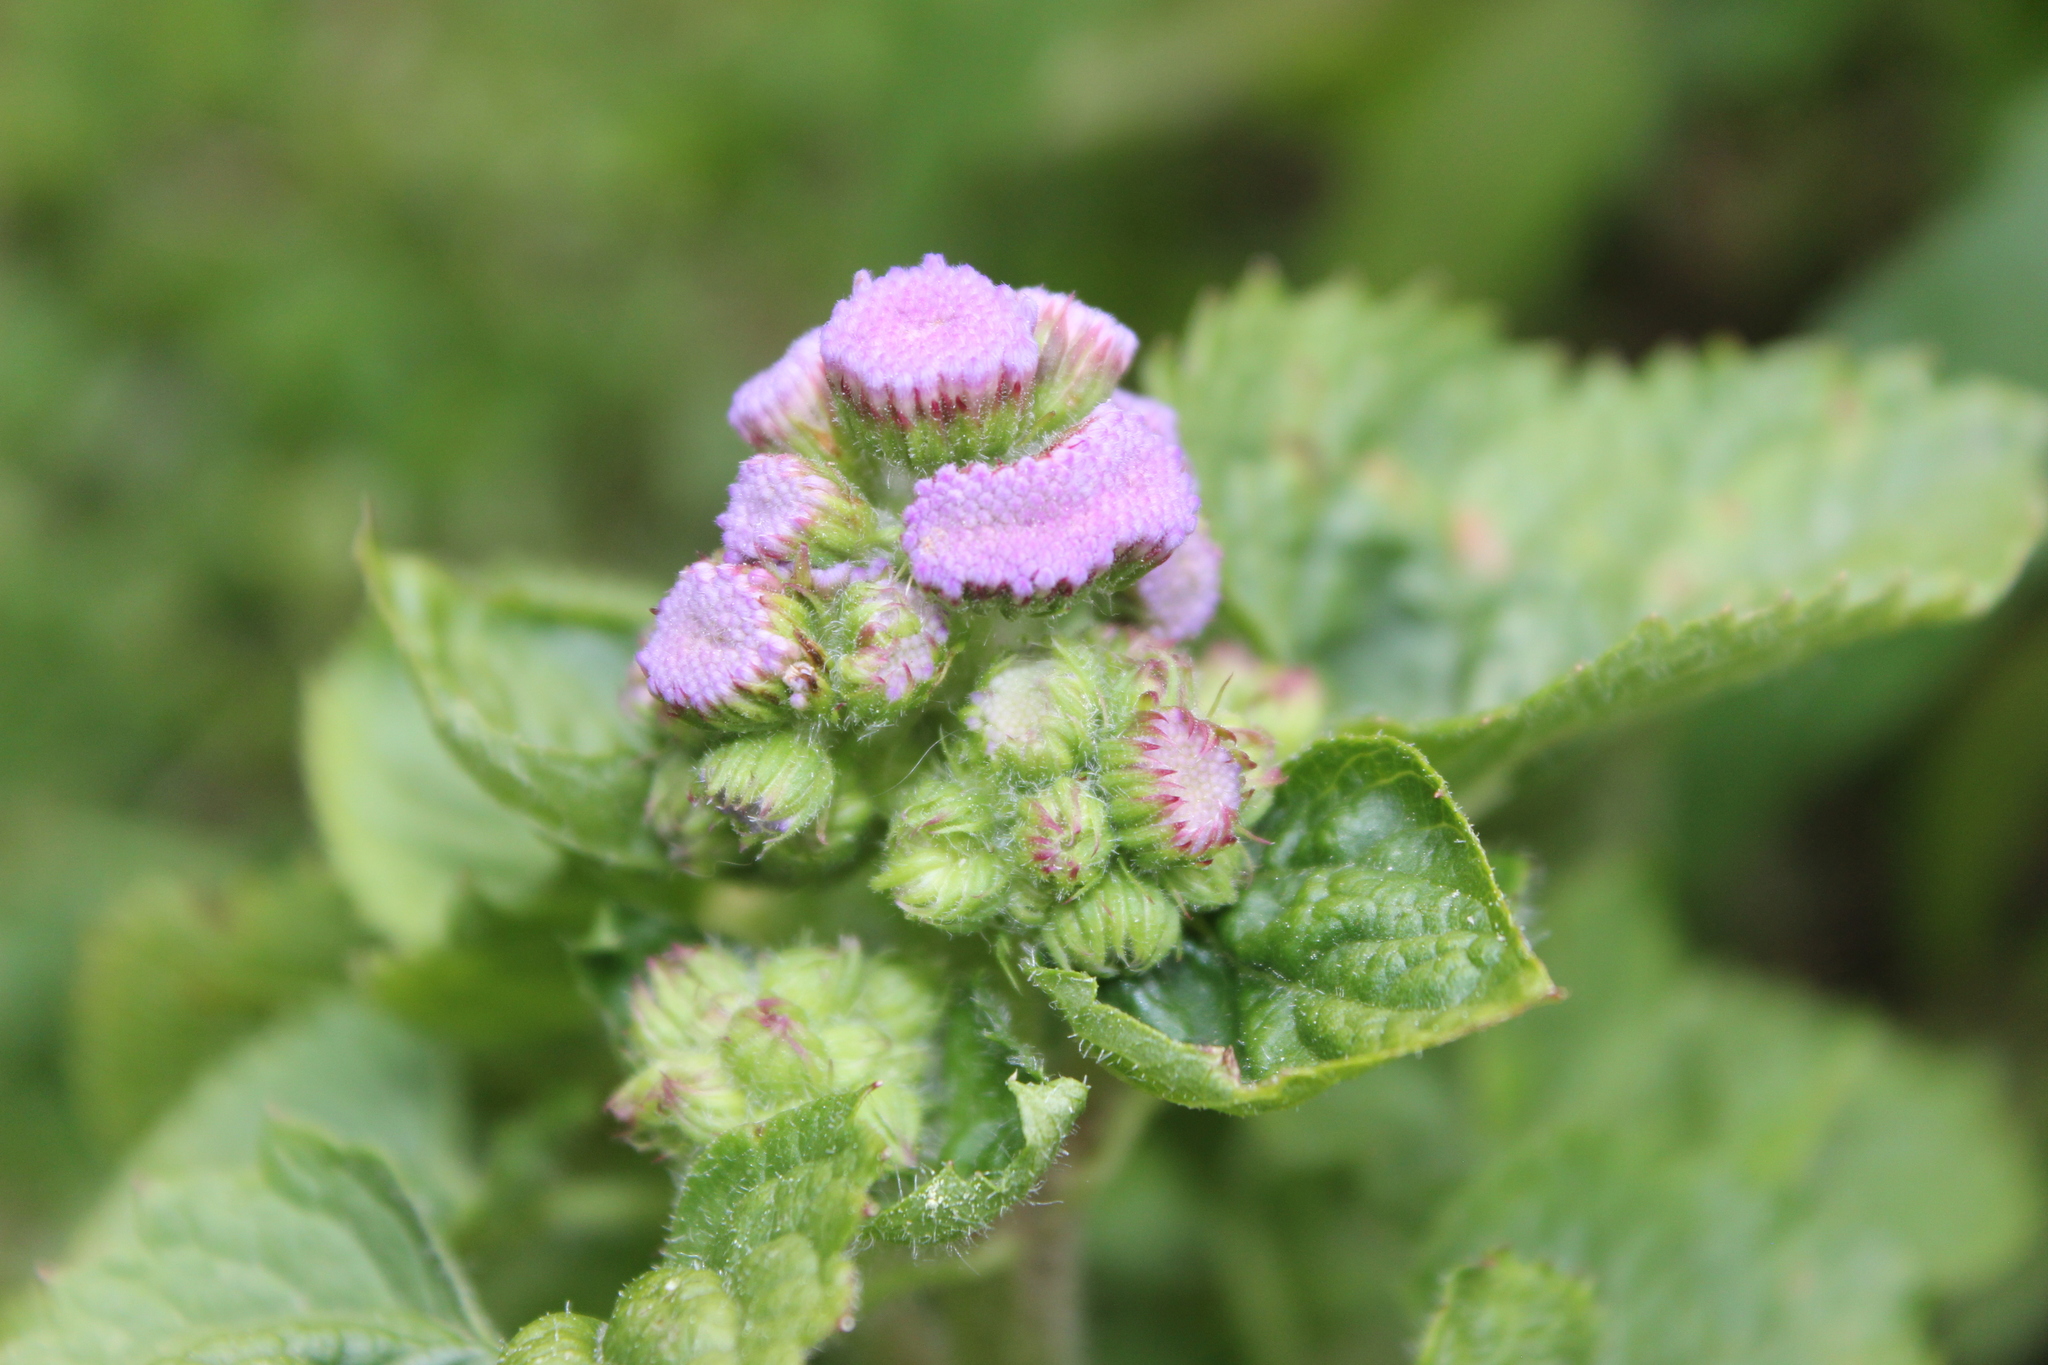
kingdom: Plantae
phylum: Tracheophyta
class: Magnoliopsida
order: Asterales
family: Asteraceae
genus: Ageratum
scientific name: Ageratum houstonianum
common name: Bluemink
